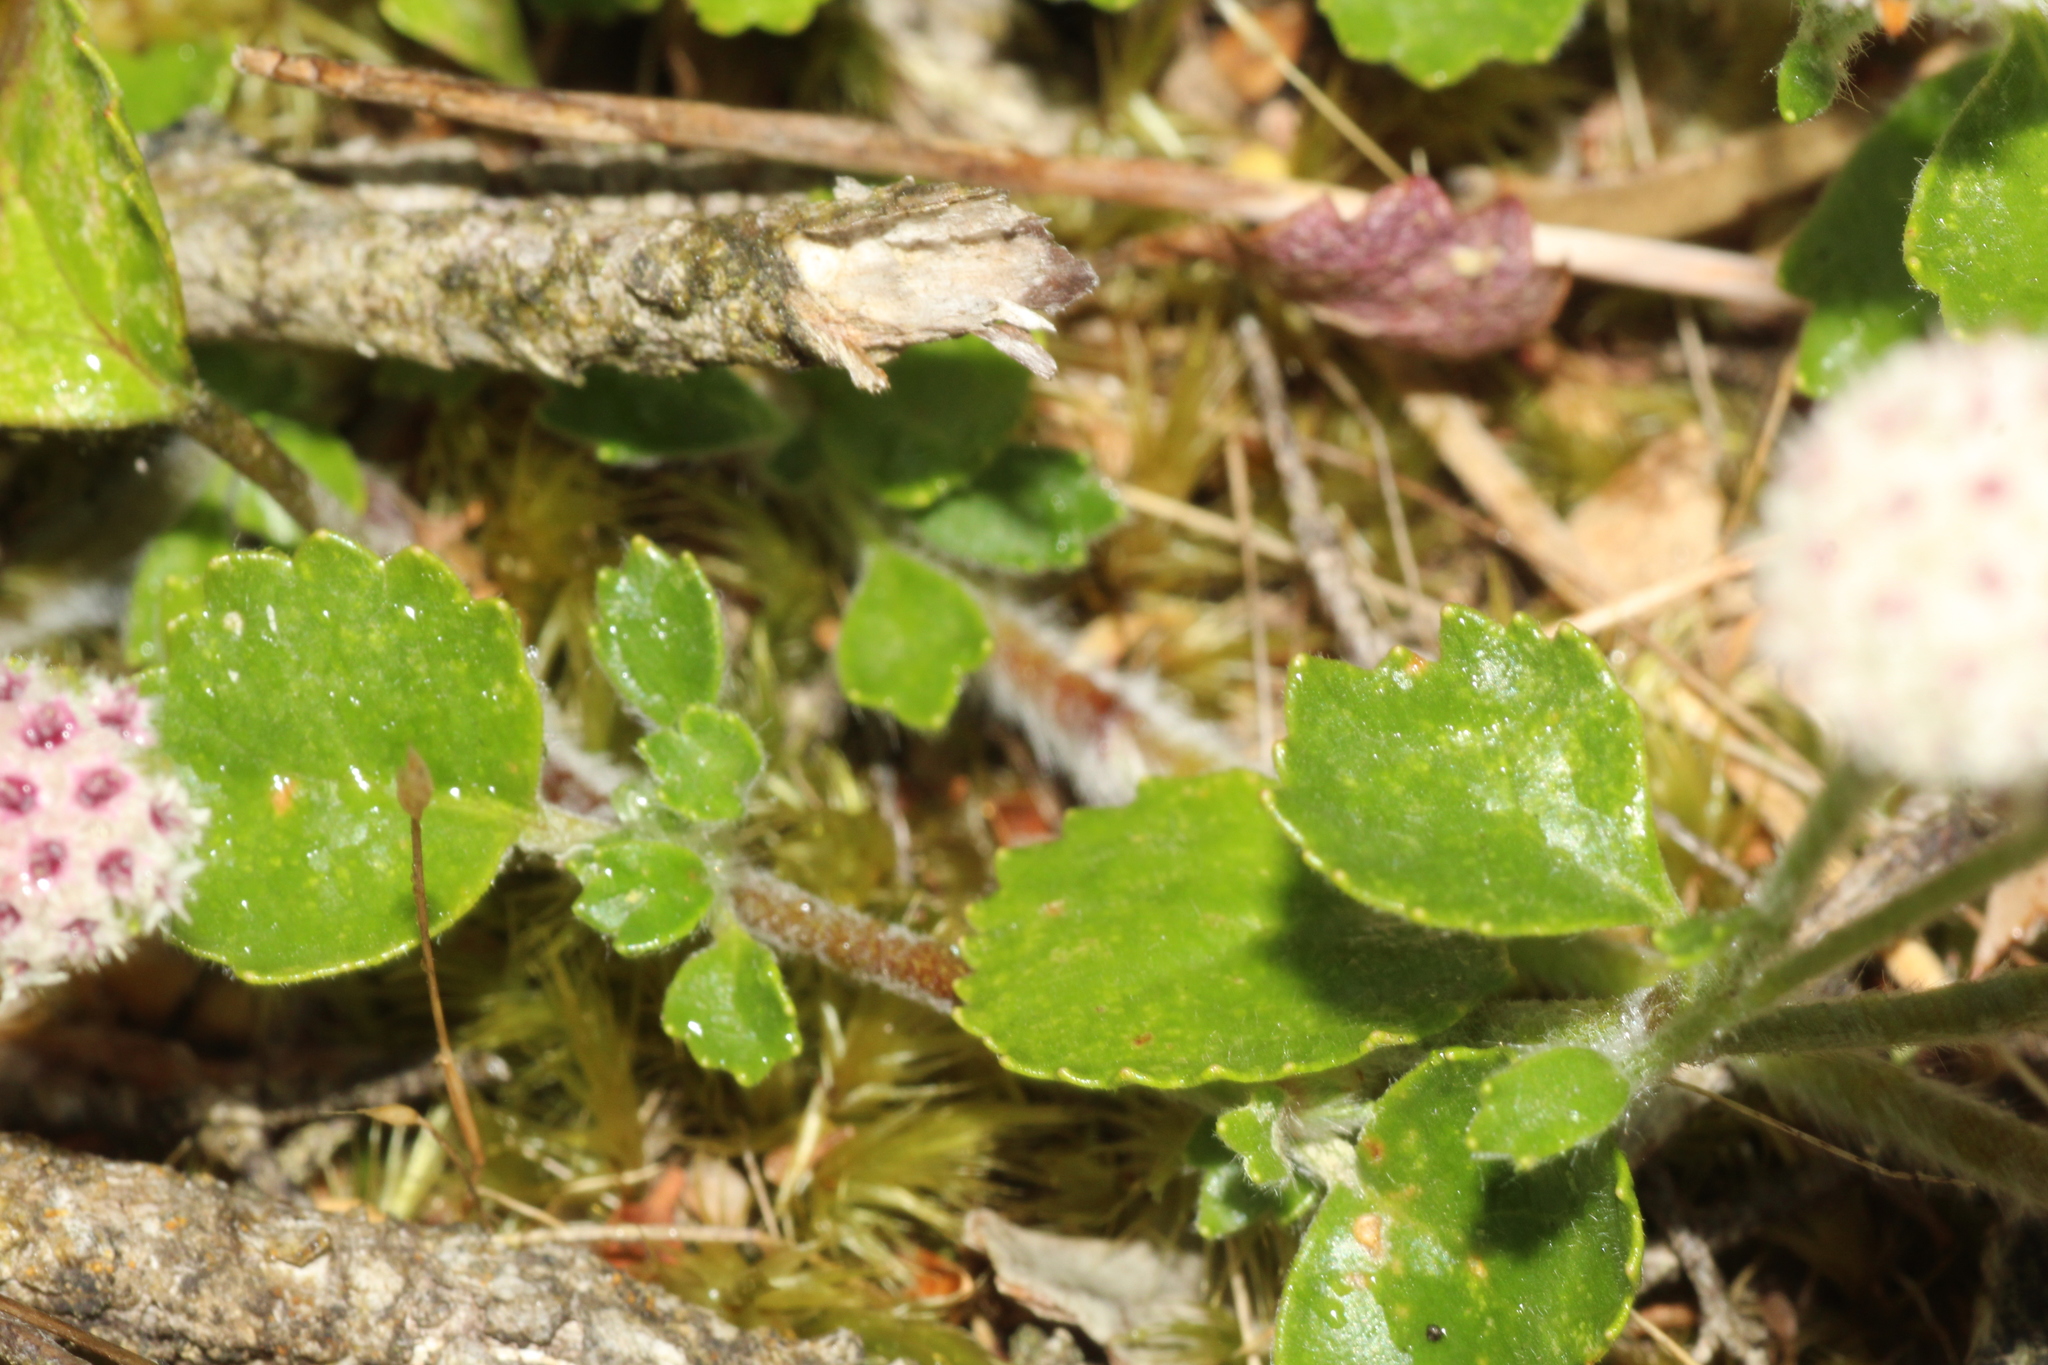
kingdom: Plantae
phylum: Tracheophyta
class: Magnoliopsida
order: Apiales
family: Apiaceae
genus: Actinotus
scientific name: Actinotus rhomboideus
